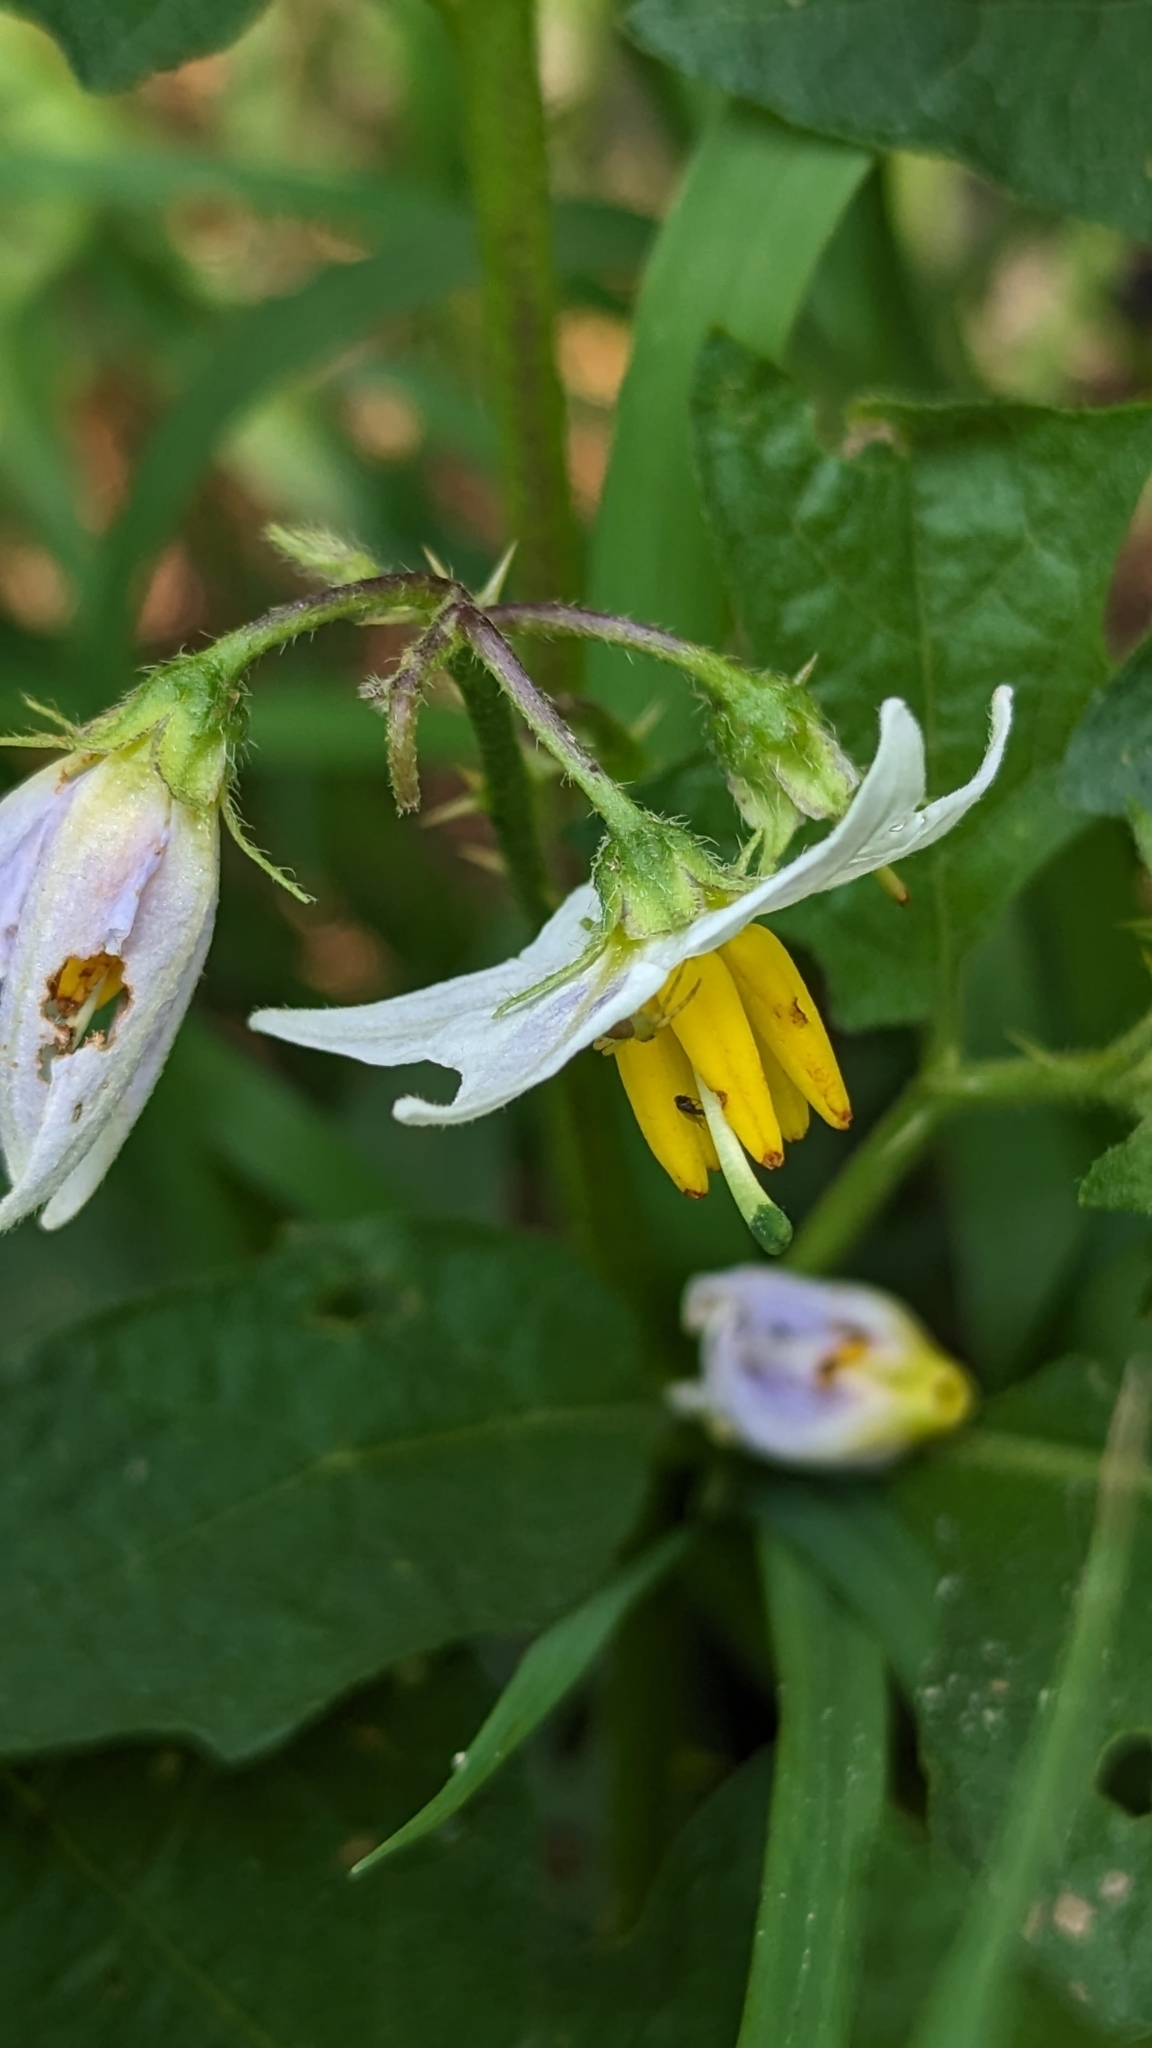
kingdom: Plantae
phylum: Tracheophyta
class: Magnoliopsida
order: Solanales
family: Solanaceae
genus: Solanum
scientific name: Solanum carolinense
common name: Horse-nettle
